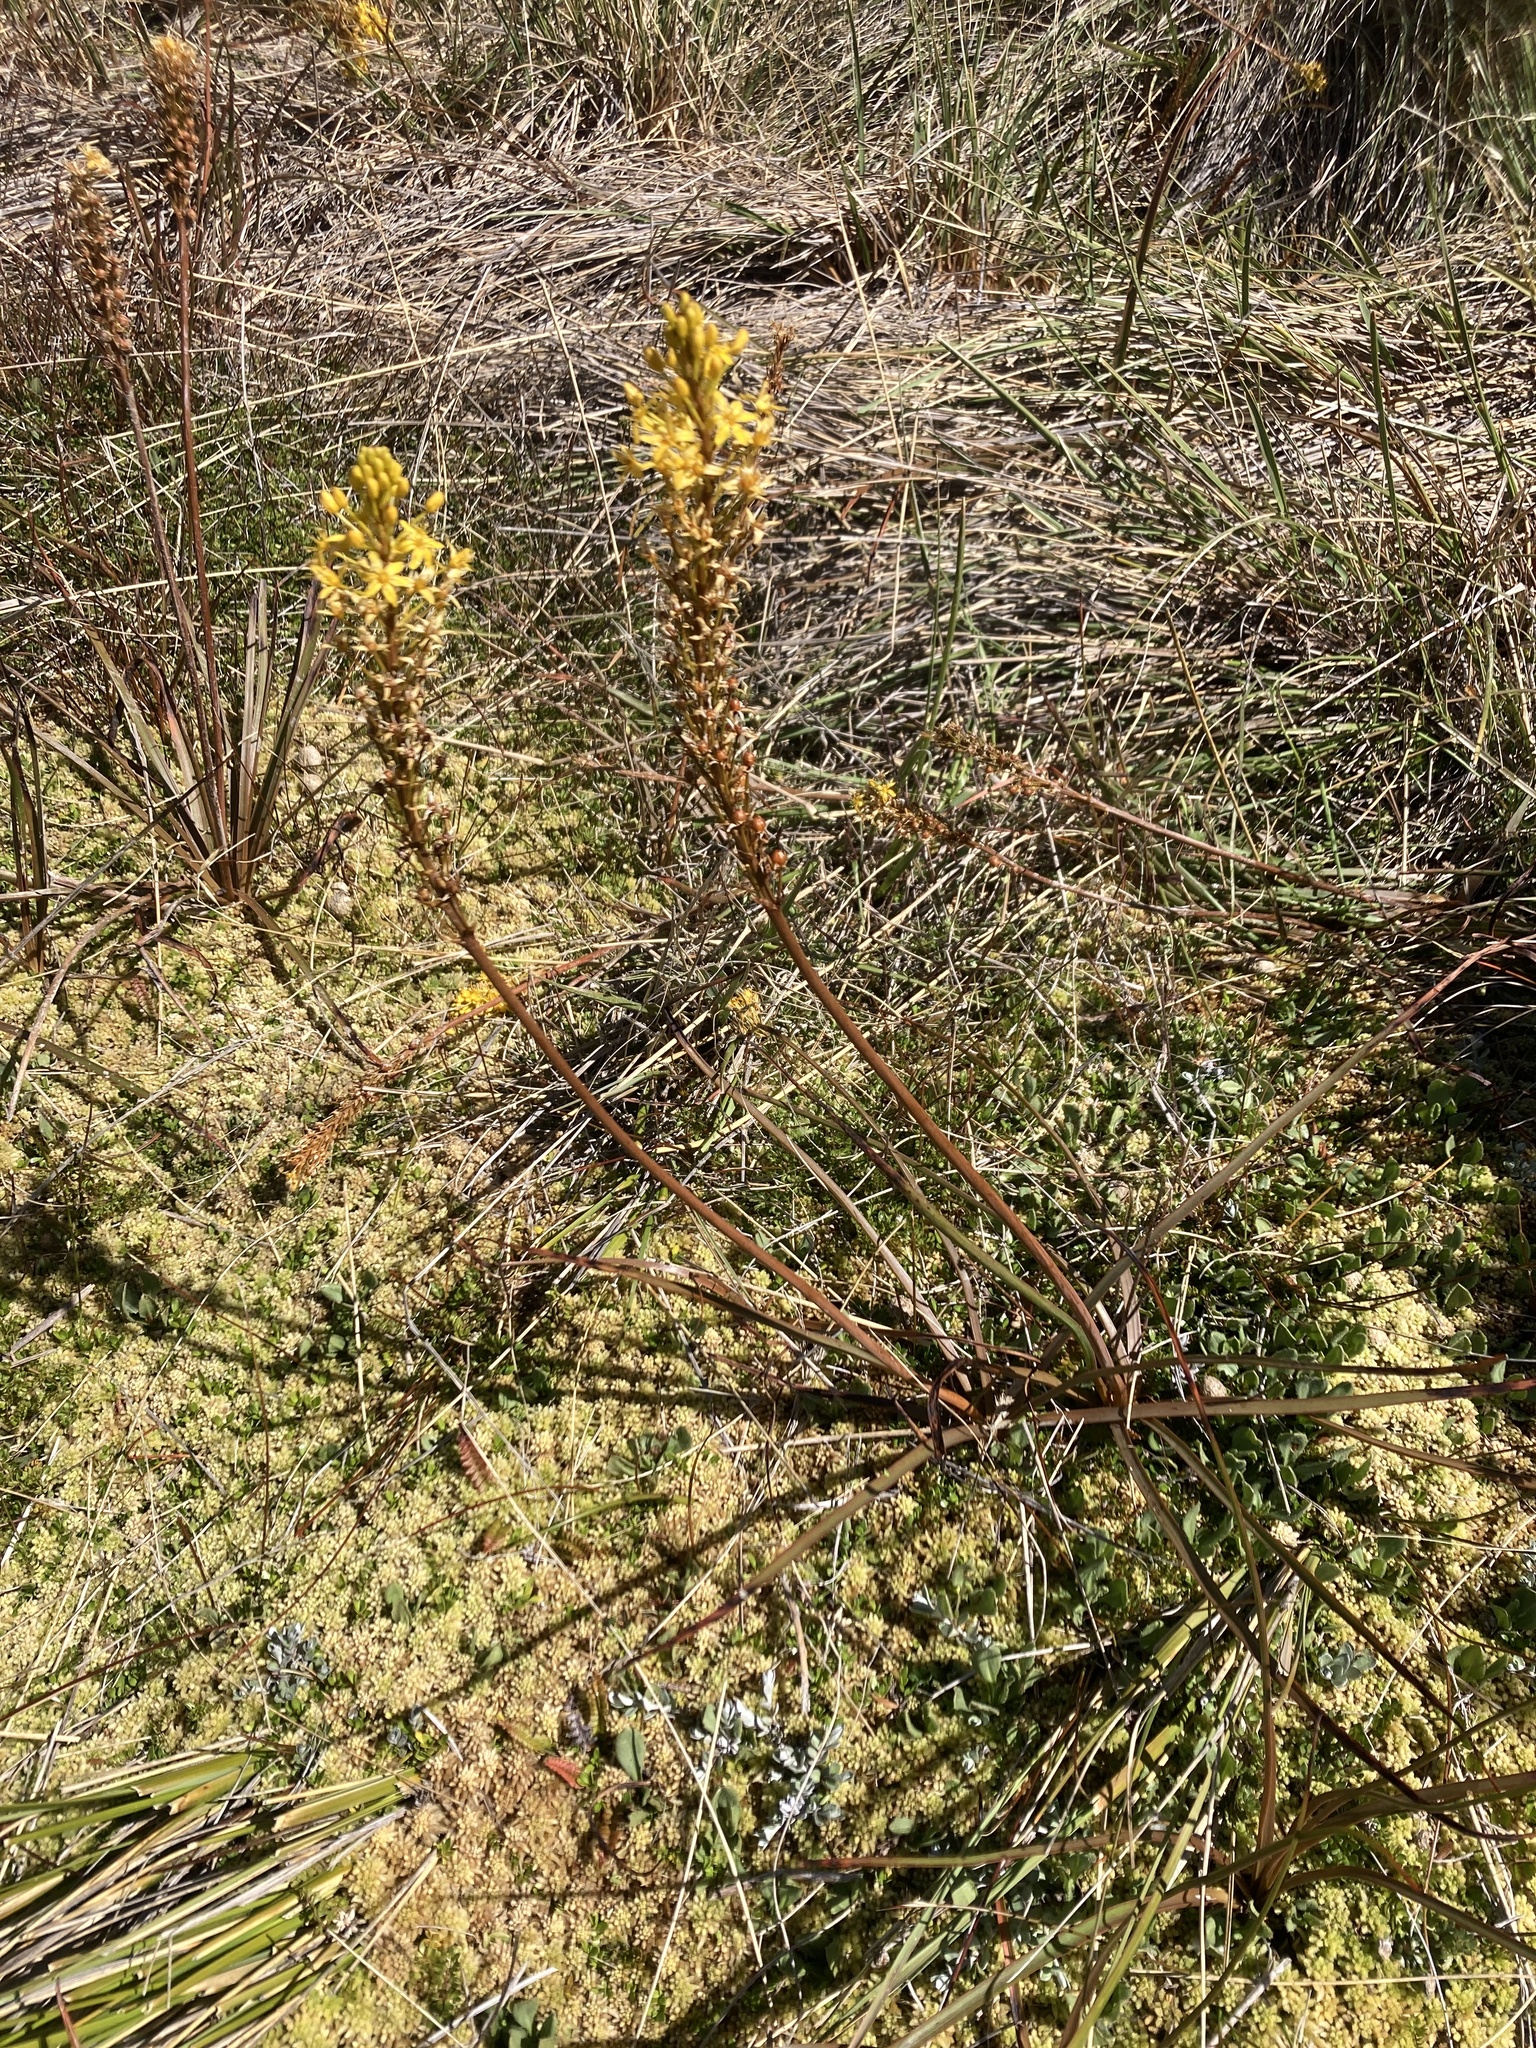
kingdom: Plantae
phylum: Tracheophyta
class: Liliopsida
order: Asparagales
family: Asphodelaceae
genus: Bulbinella
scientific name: Bulbinella angustifolia
